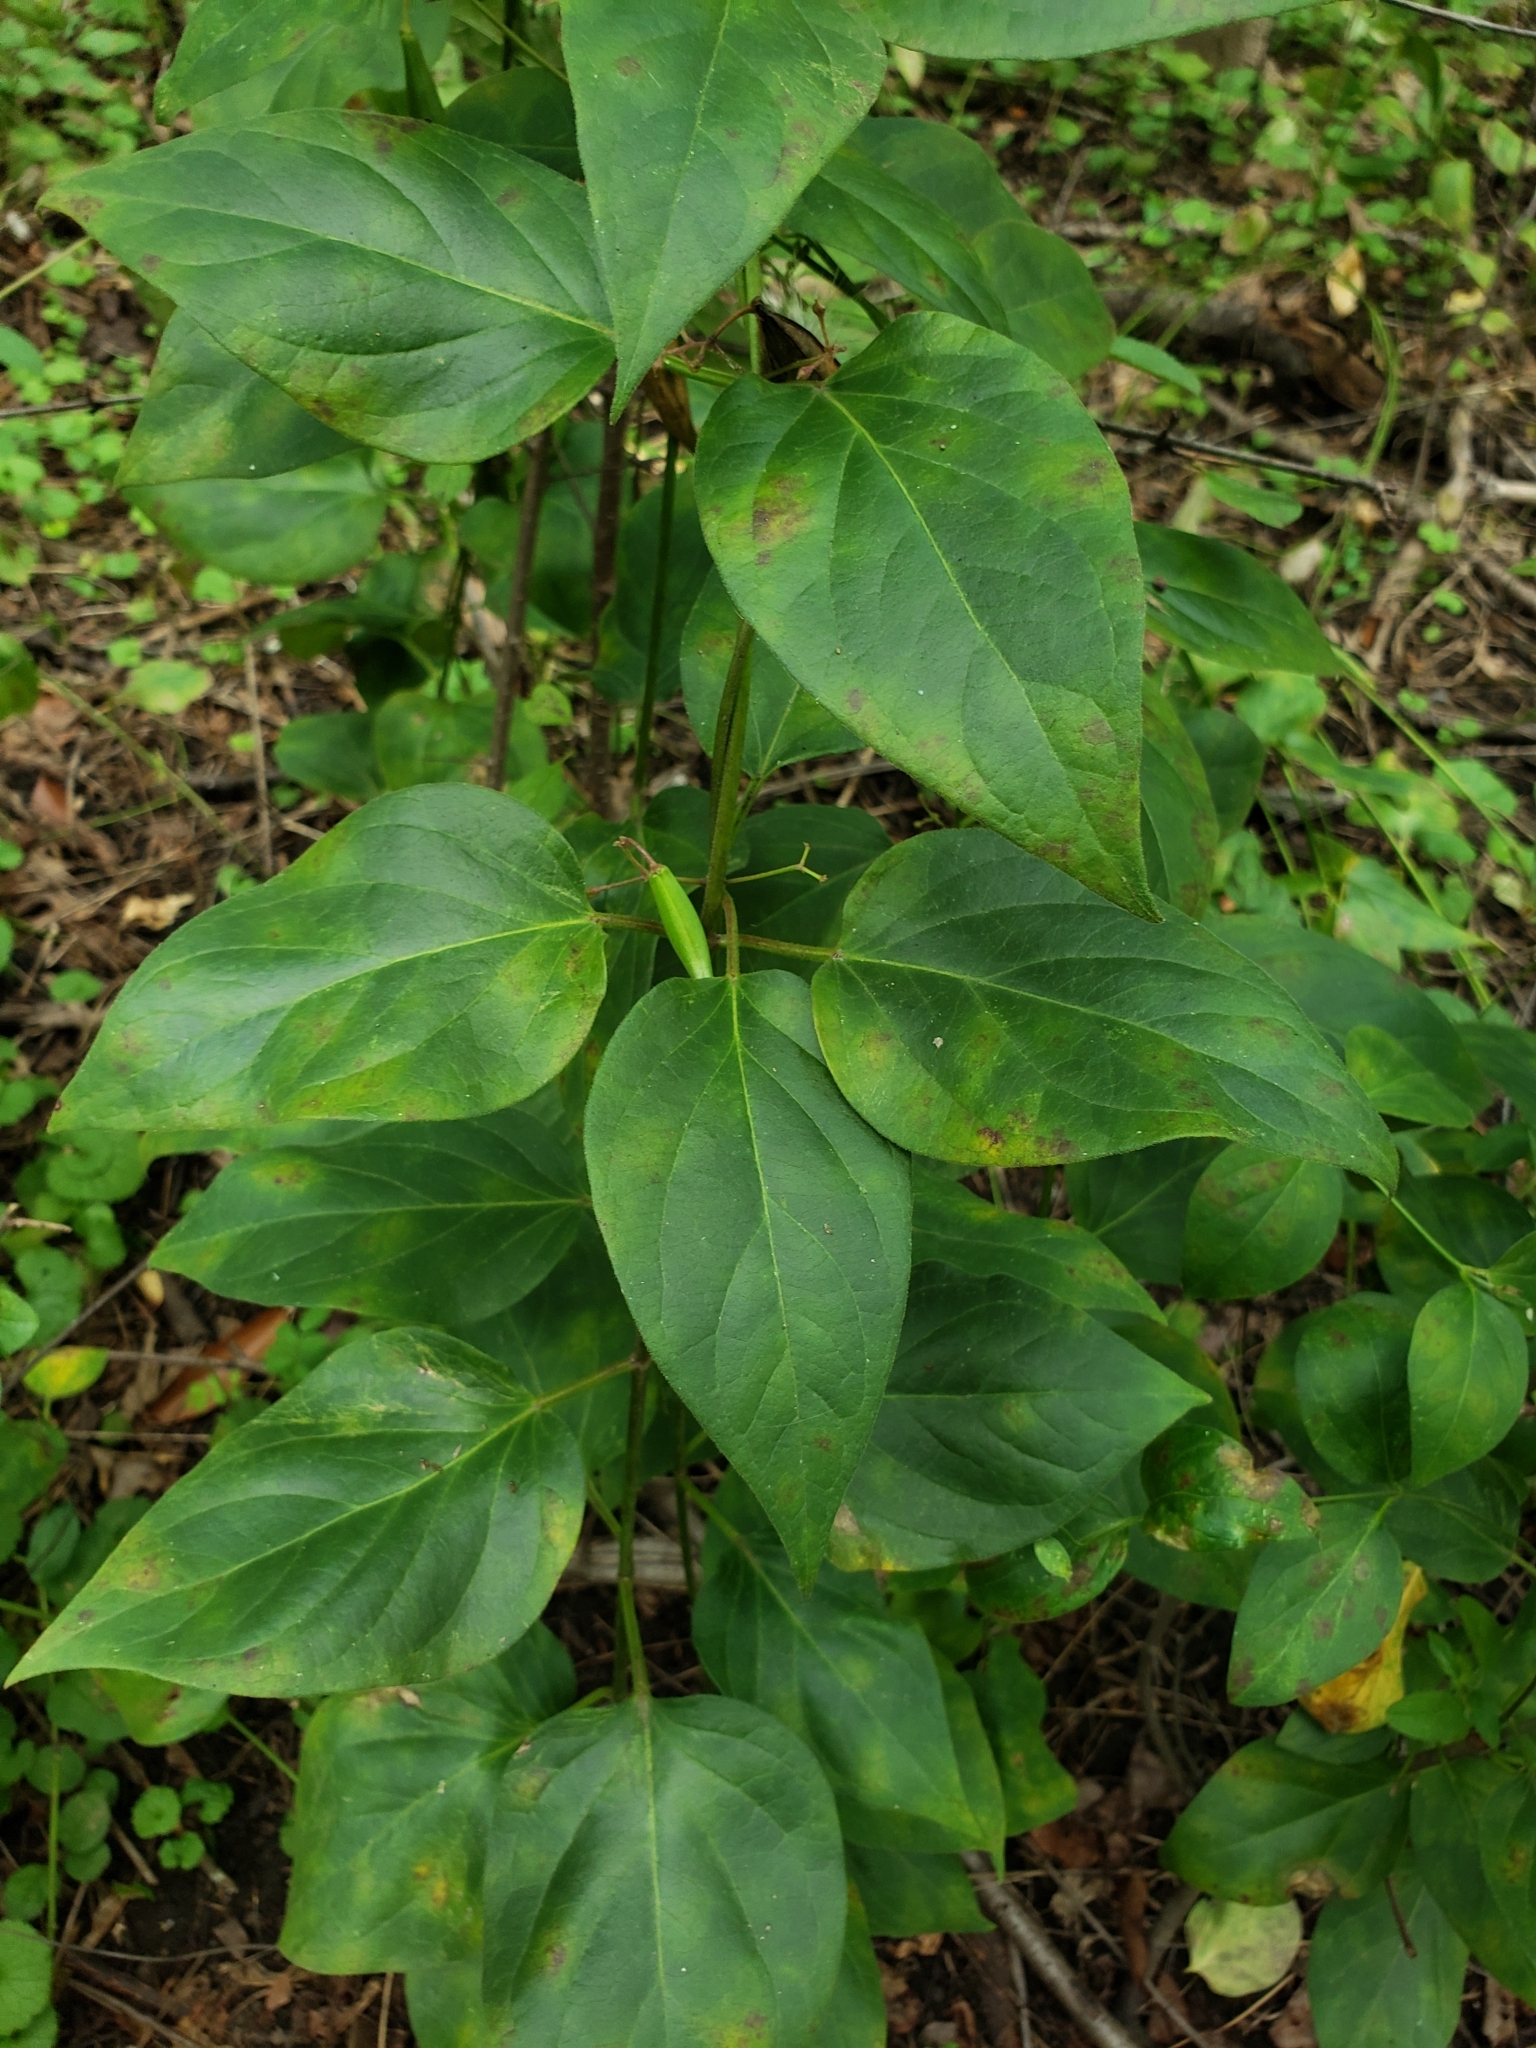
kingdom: Plantae
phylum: Tracheophyta
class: Magnoliopsida
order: Gentianales
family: Apocynaceae
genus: Vincetoxicum
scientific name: Vincetoxicum nigrum
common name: Black swallow-wort
